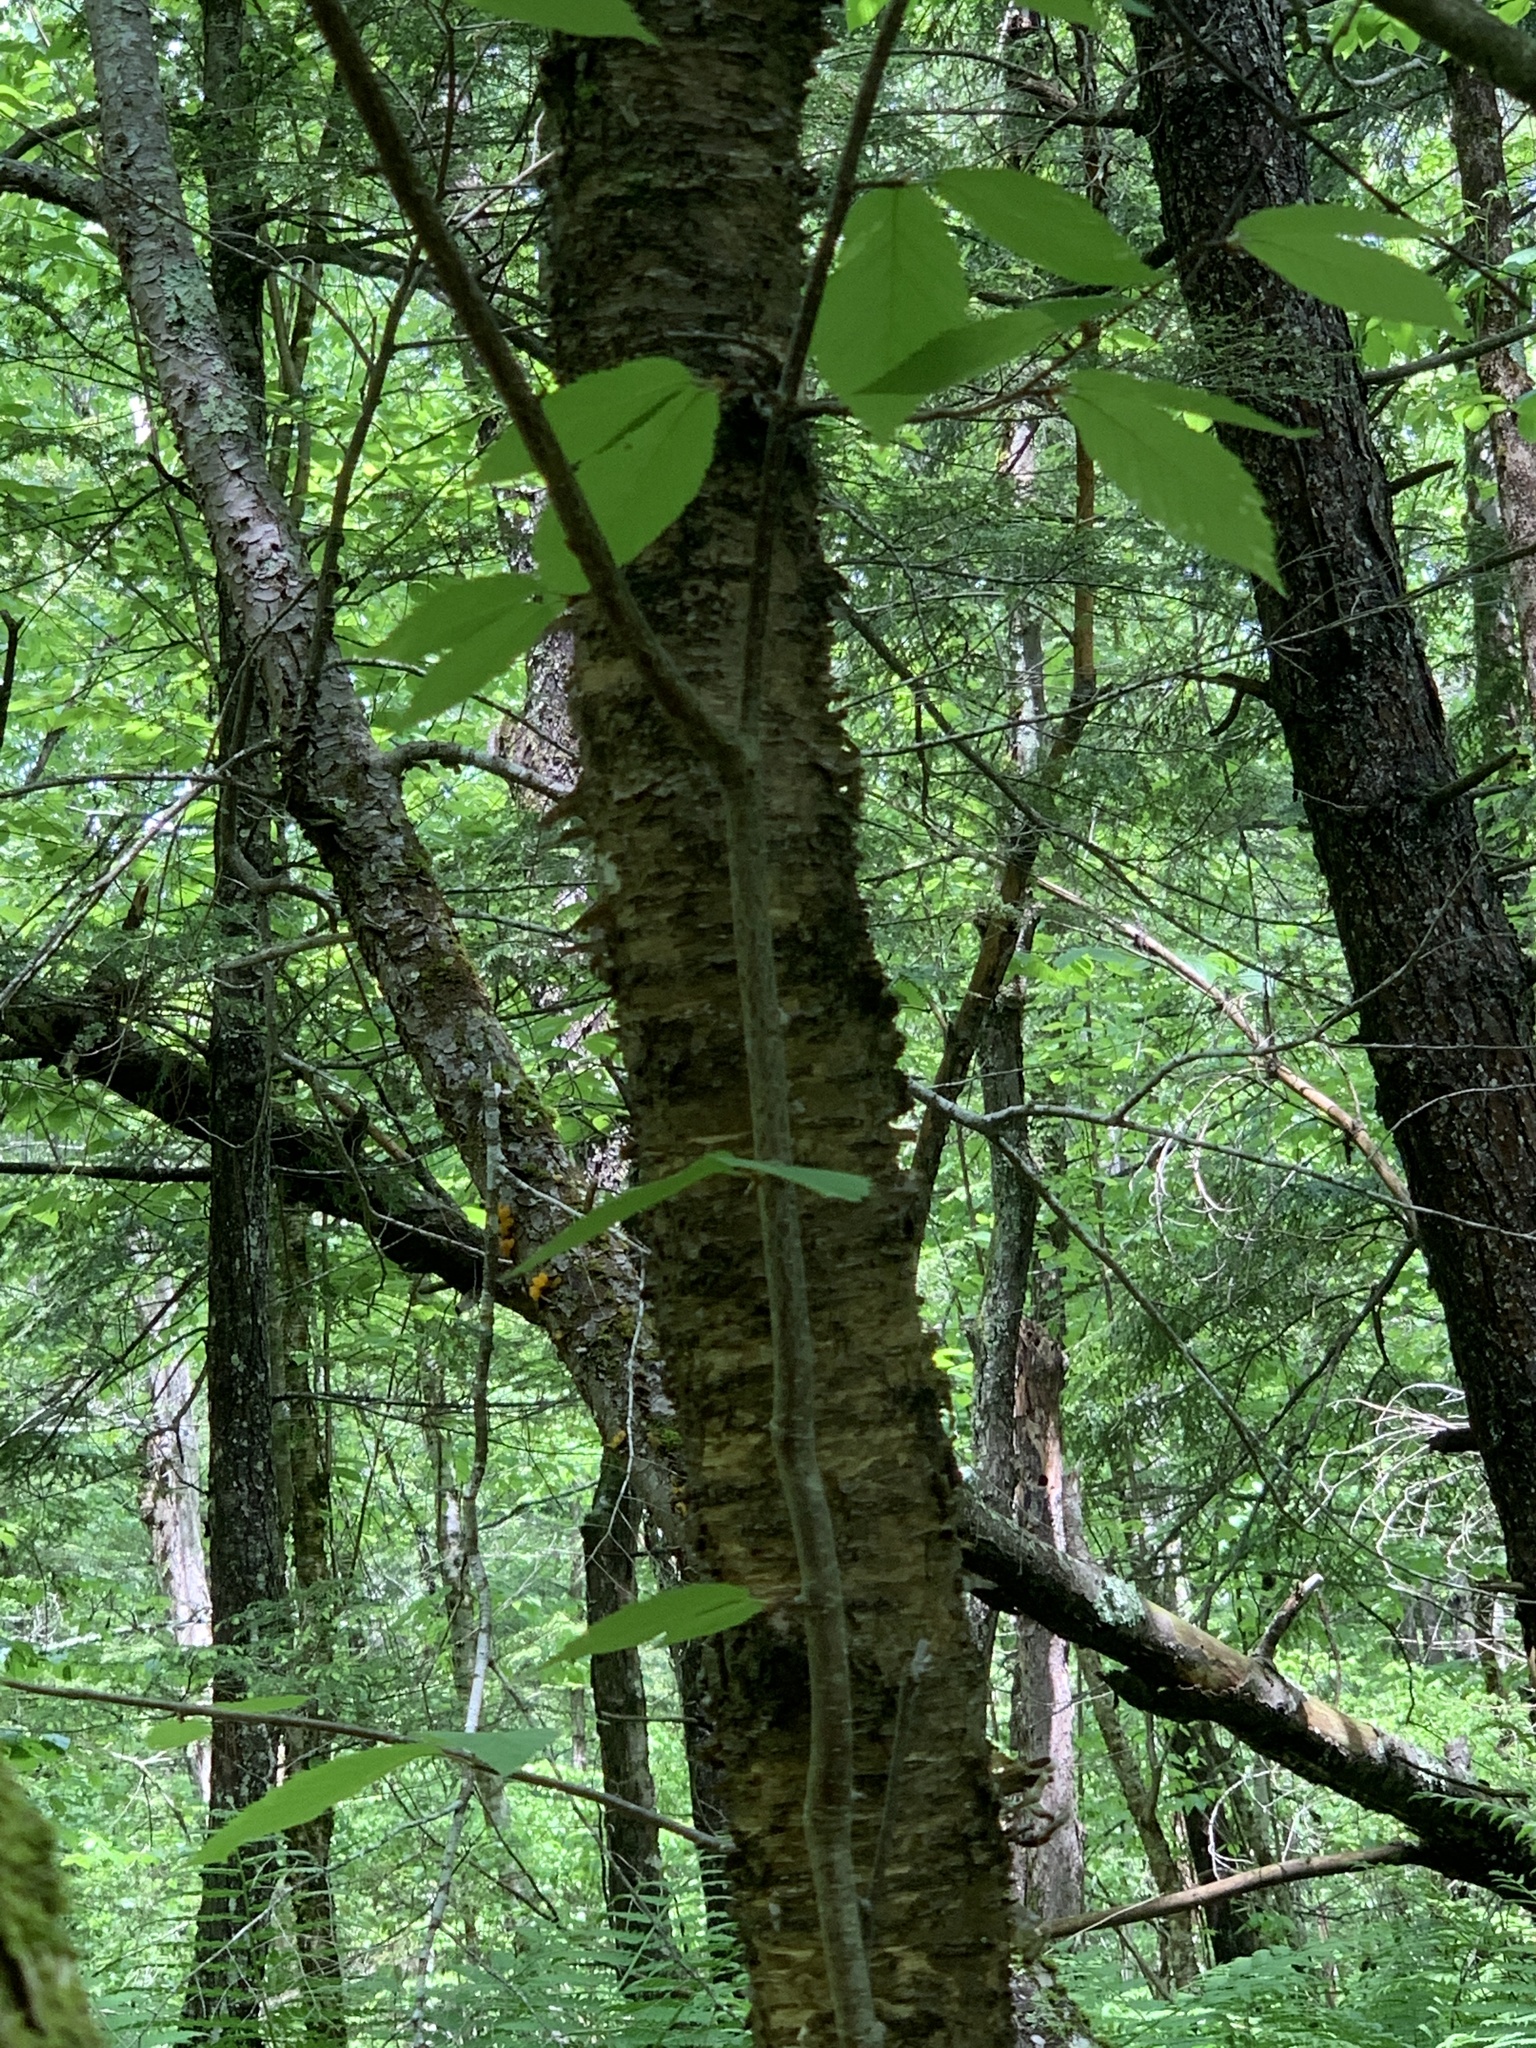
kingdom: Plantae
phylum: Tracheophyta
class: Magnoliopsida
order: Fagales
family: Betulaceae
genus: Betula
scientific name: Betula alleghaniensis
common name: Yellow birch
